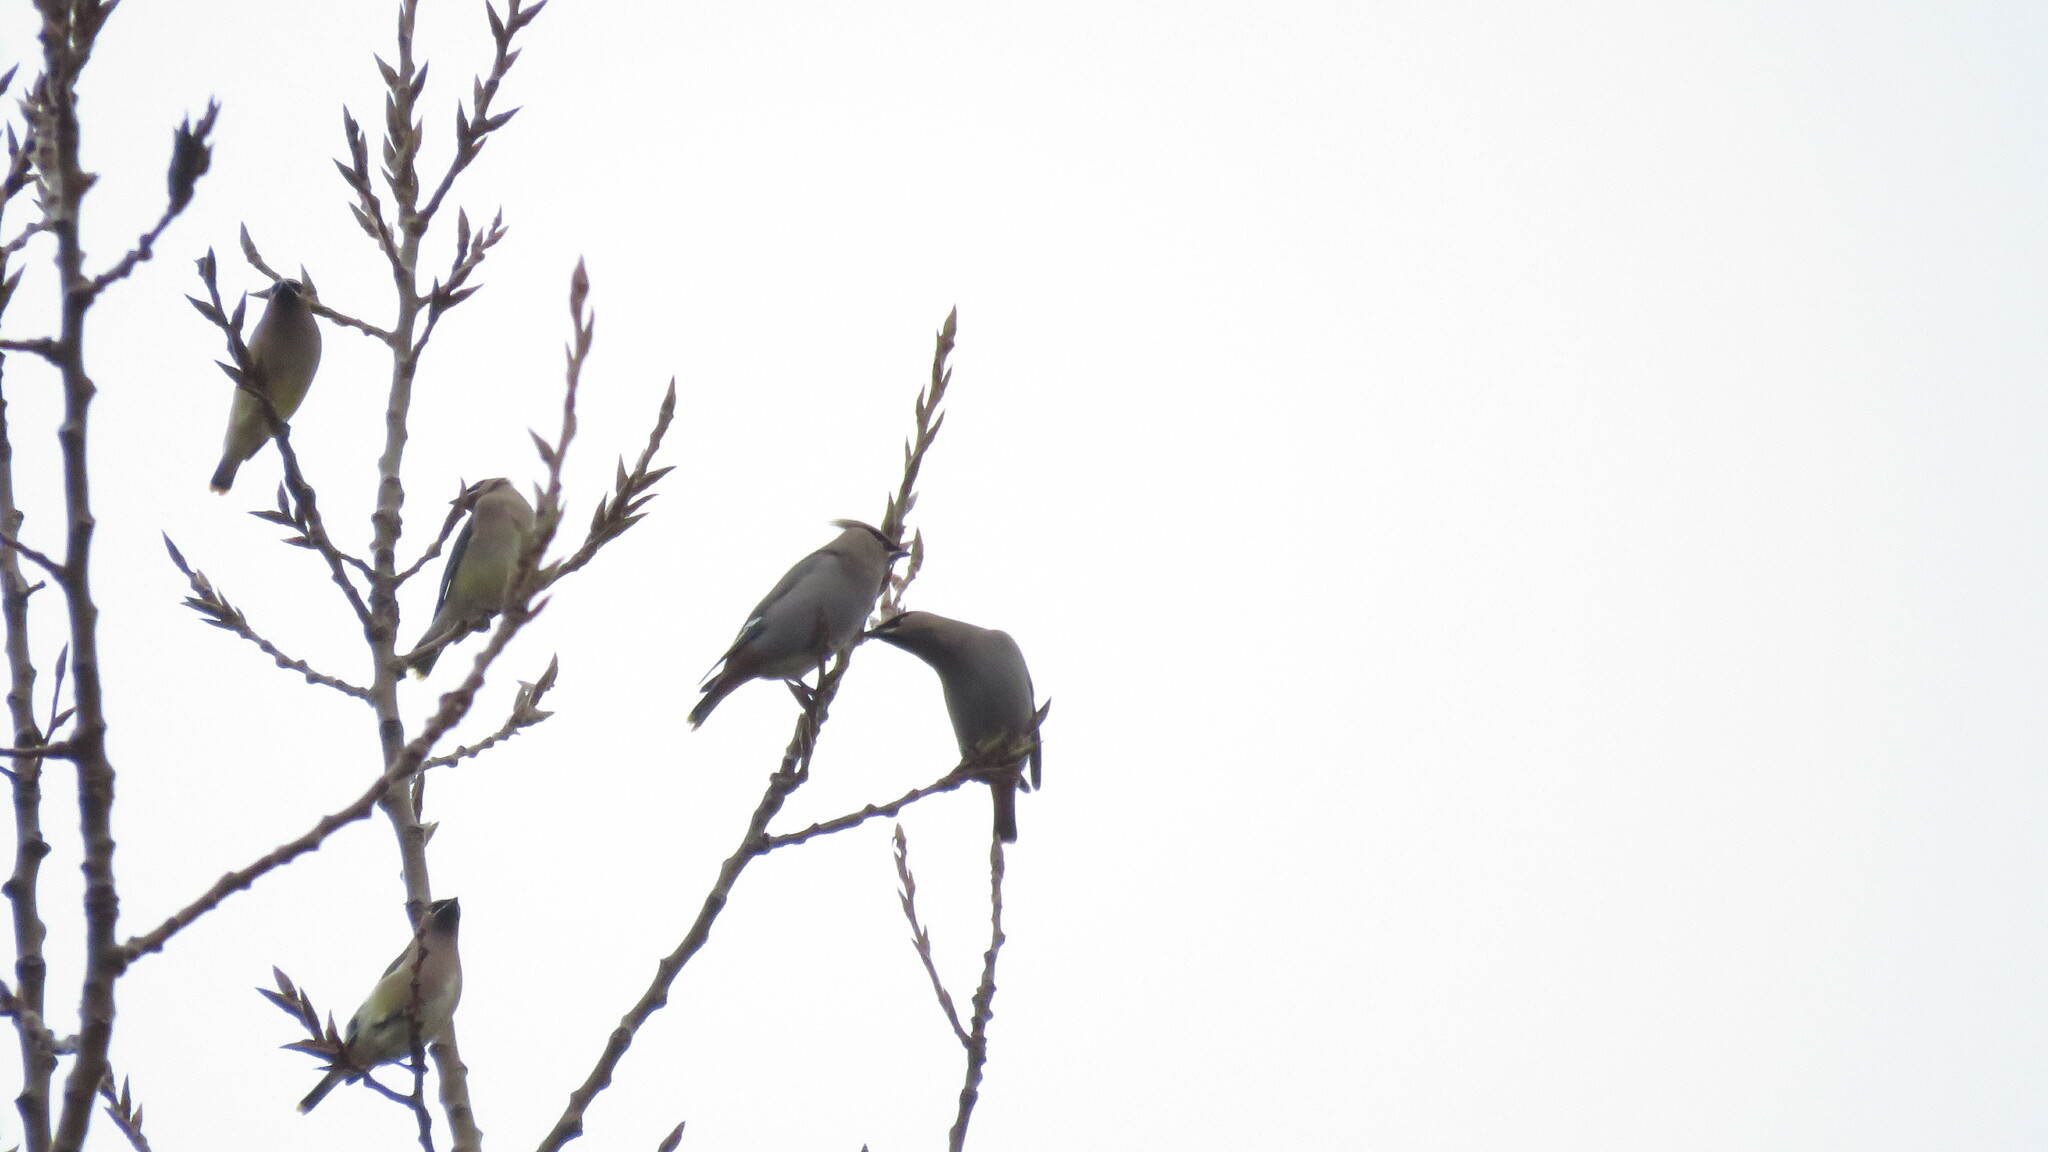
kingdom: Animalia
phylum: Chordata
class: Aves
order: Passeriformes
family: Bombycillidae
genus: Bombycilla
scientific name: Bombycilla garrulus
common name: Bohemian waxwing
